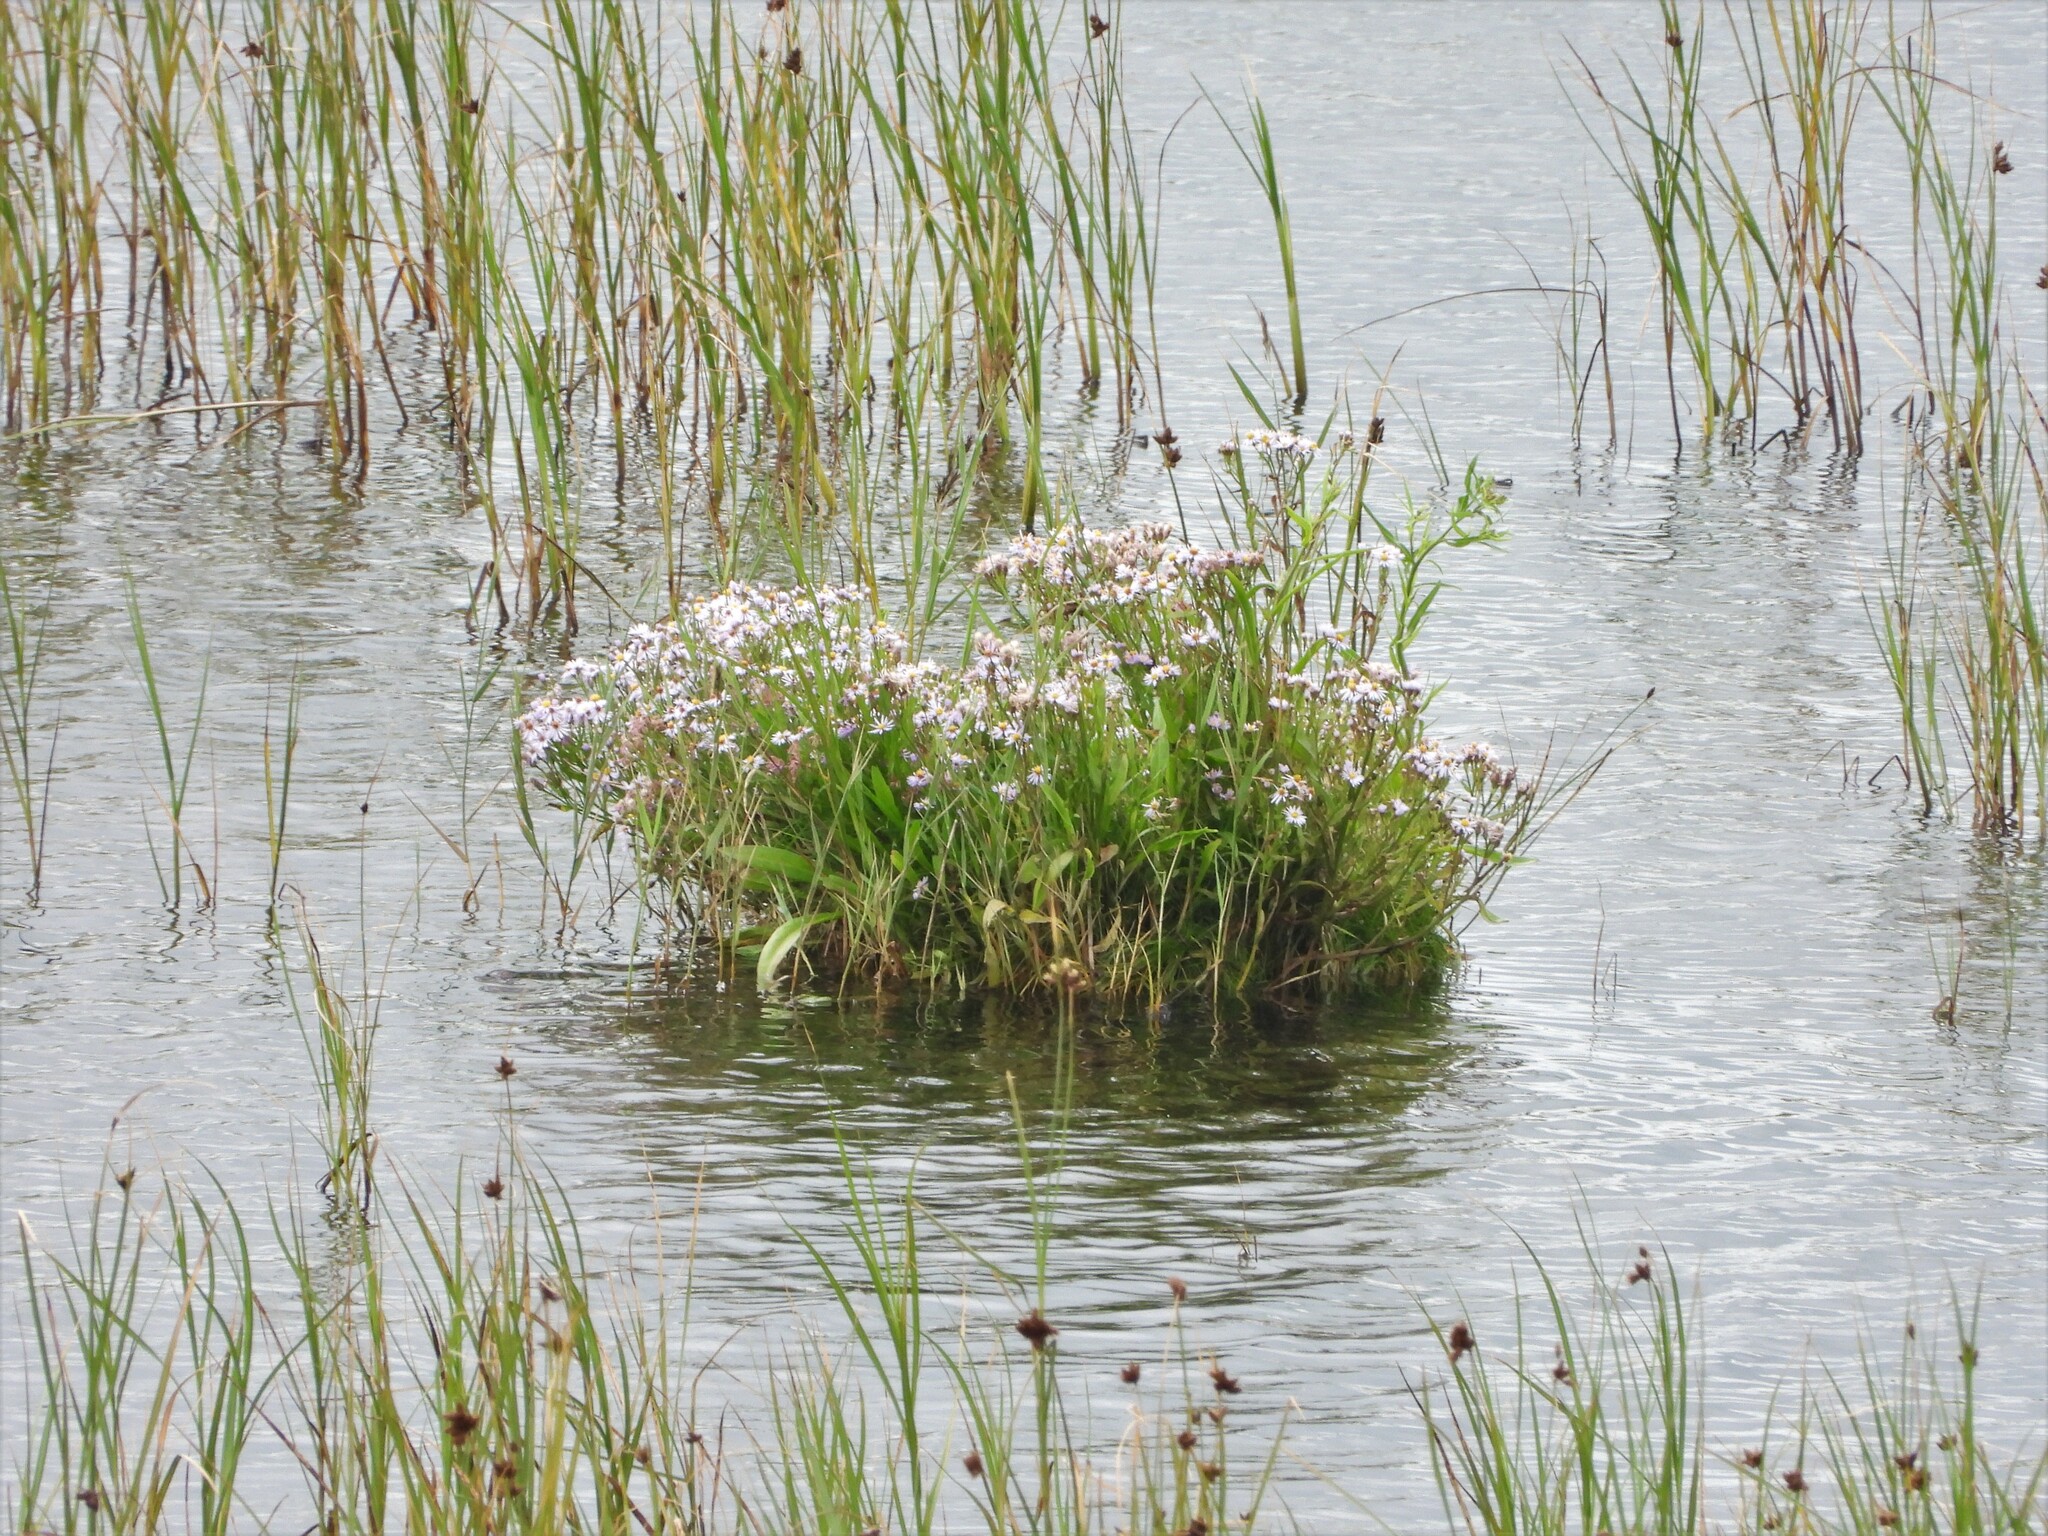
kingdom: Plantae
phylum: Tracheophyta
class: Magnoliopsida
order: Asterales
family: Asteraceae
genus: Tripolium
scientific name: Tripolium pannonicum
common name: Sea aster
